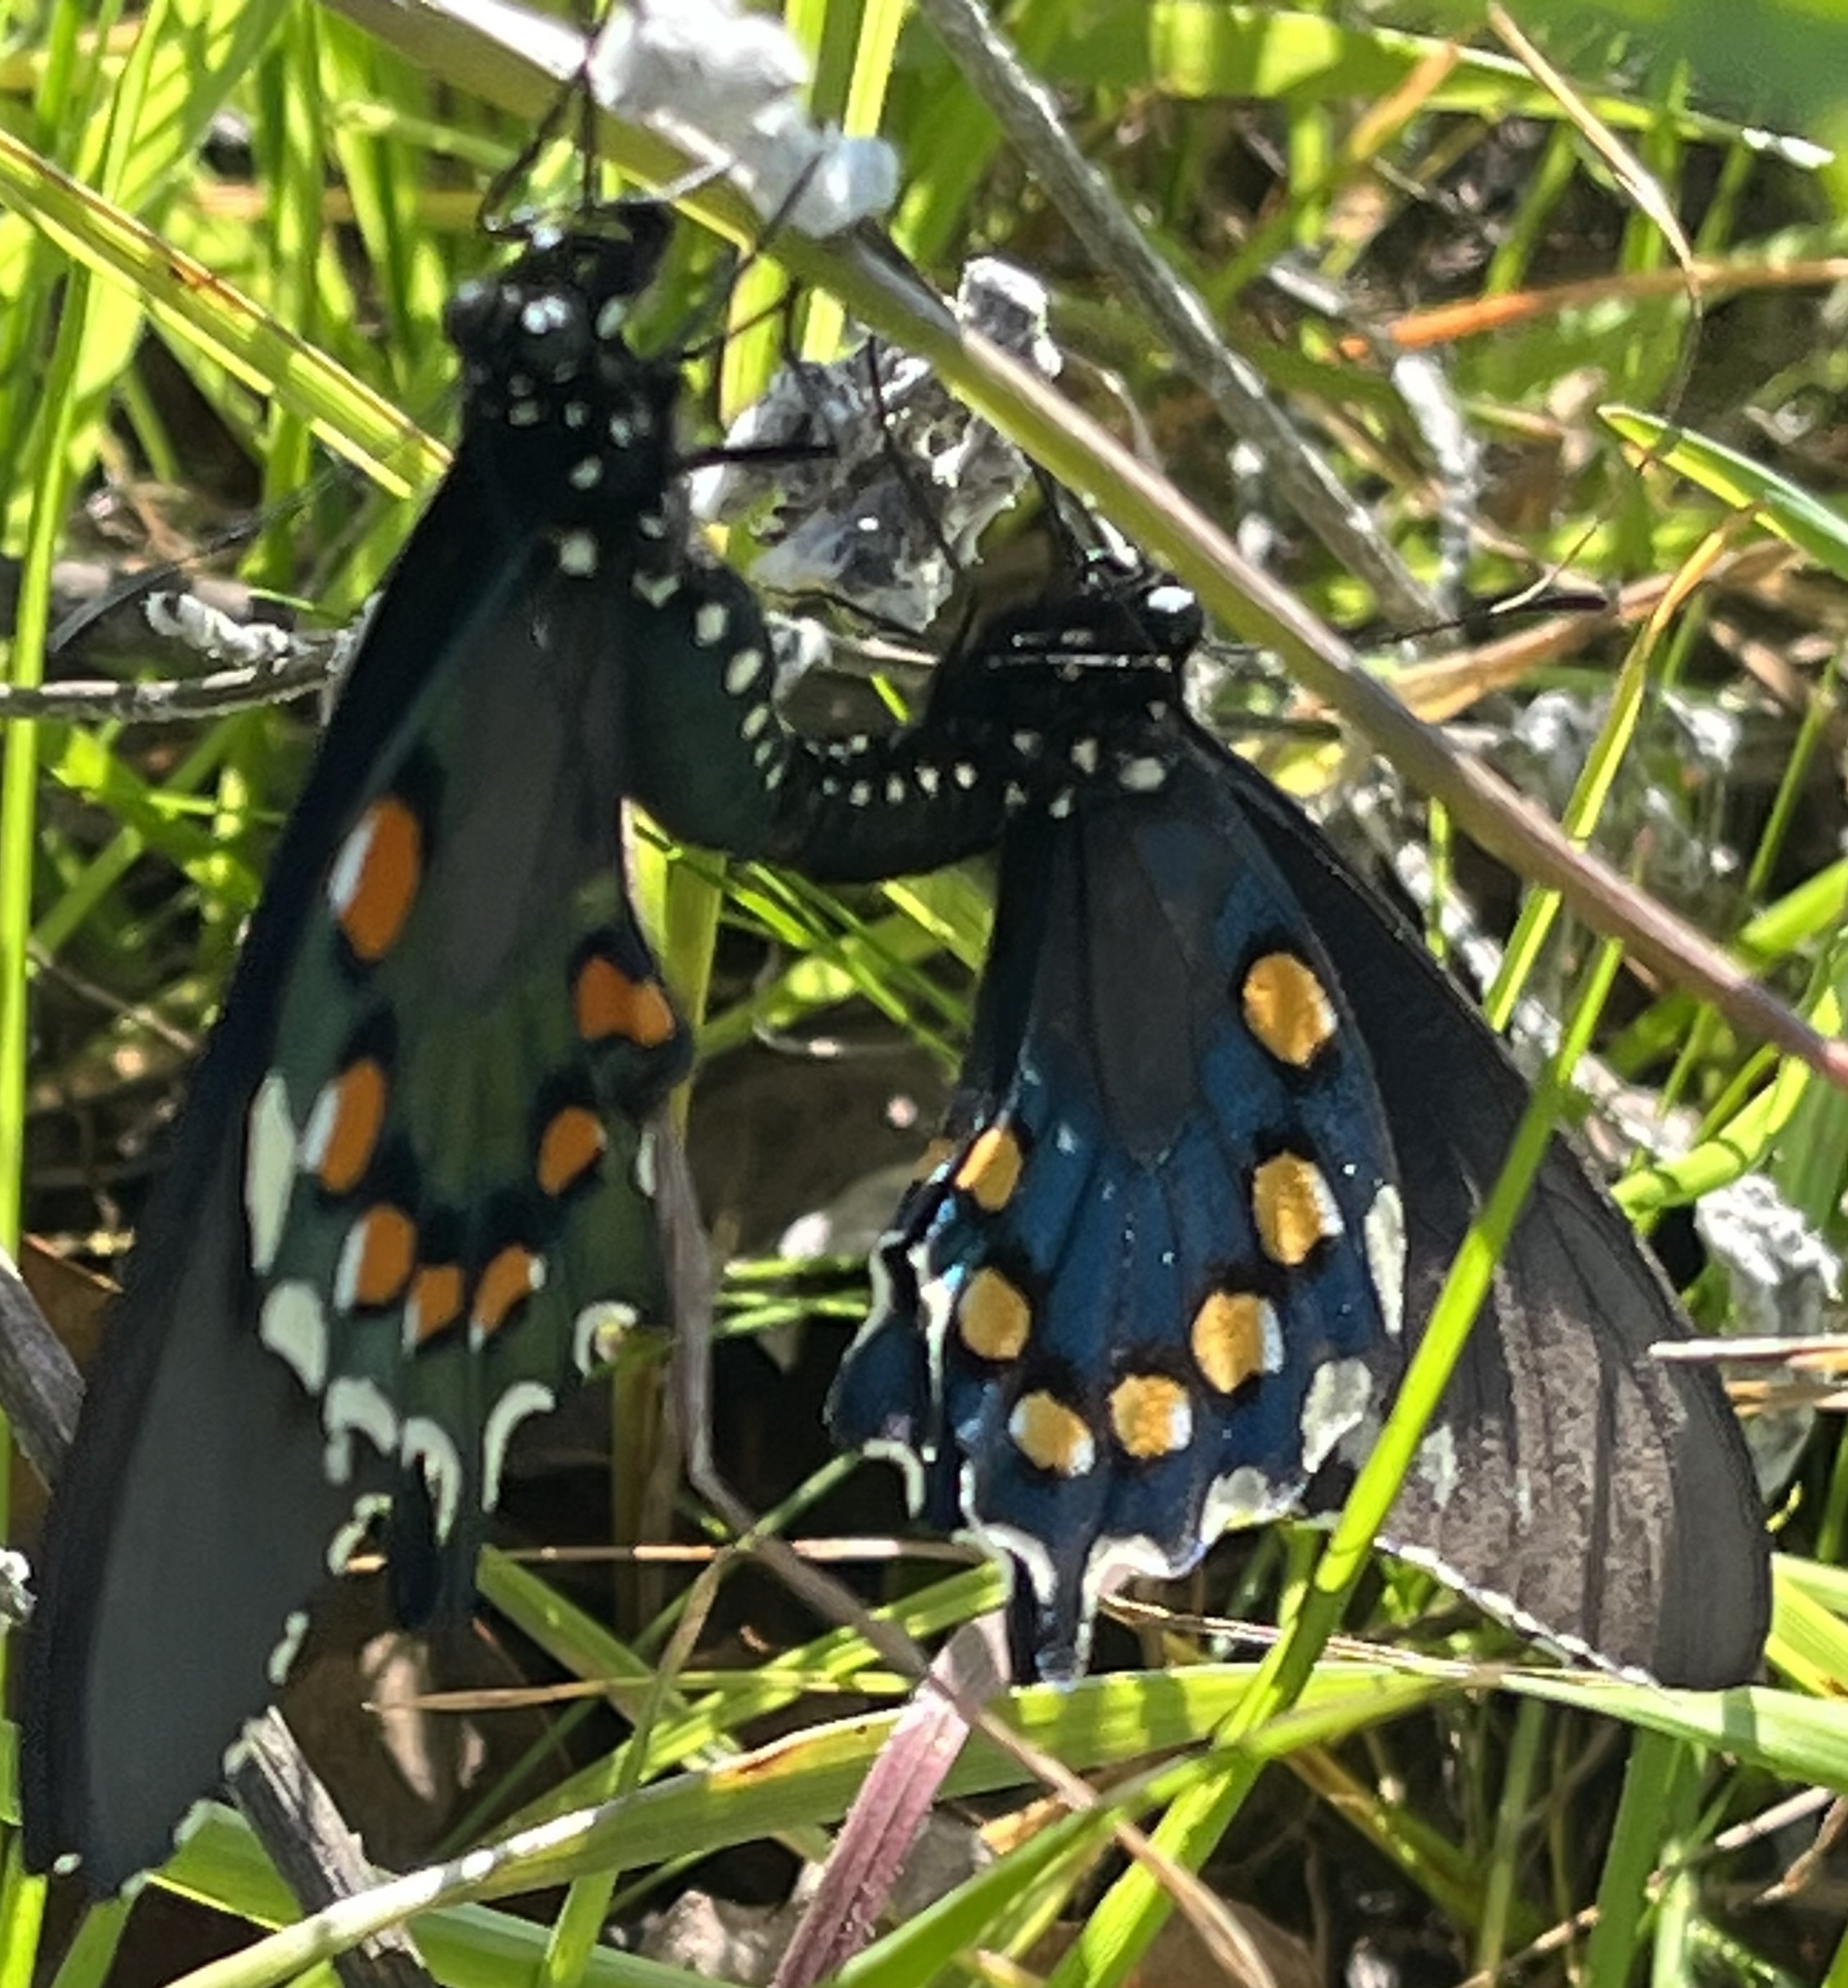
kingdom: Animalia
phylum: Arthropoda
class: Insecta
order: Lepidoptera
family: Papilionidae
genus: Battus
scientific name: Battus philenor
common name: Pipevine swallowtail
